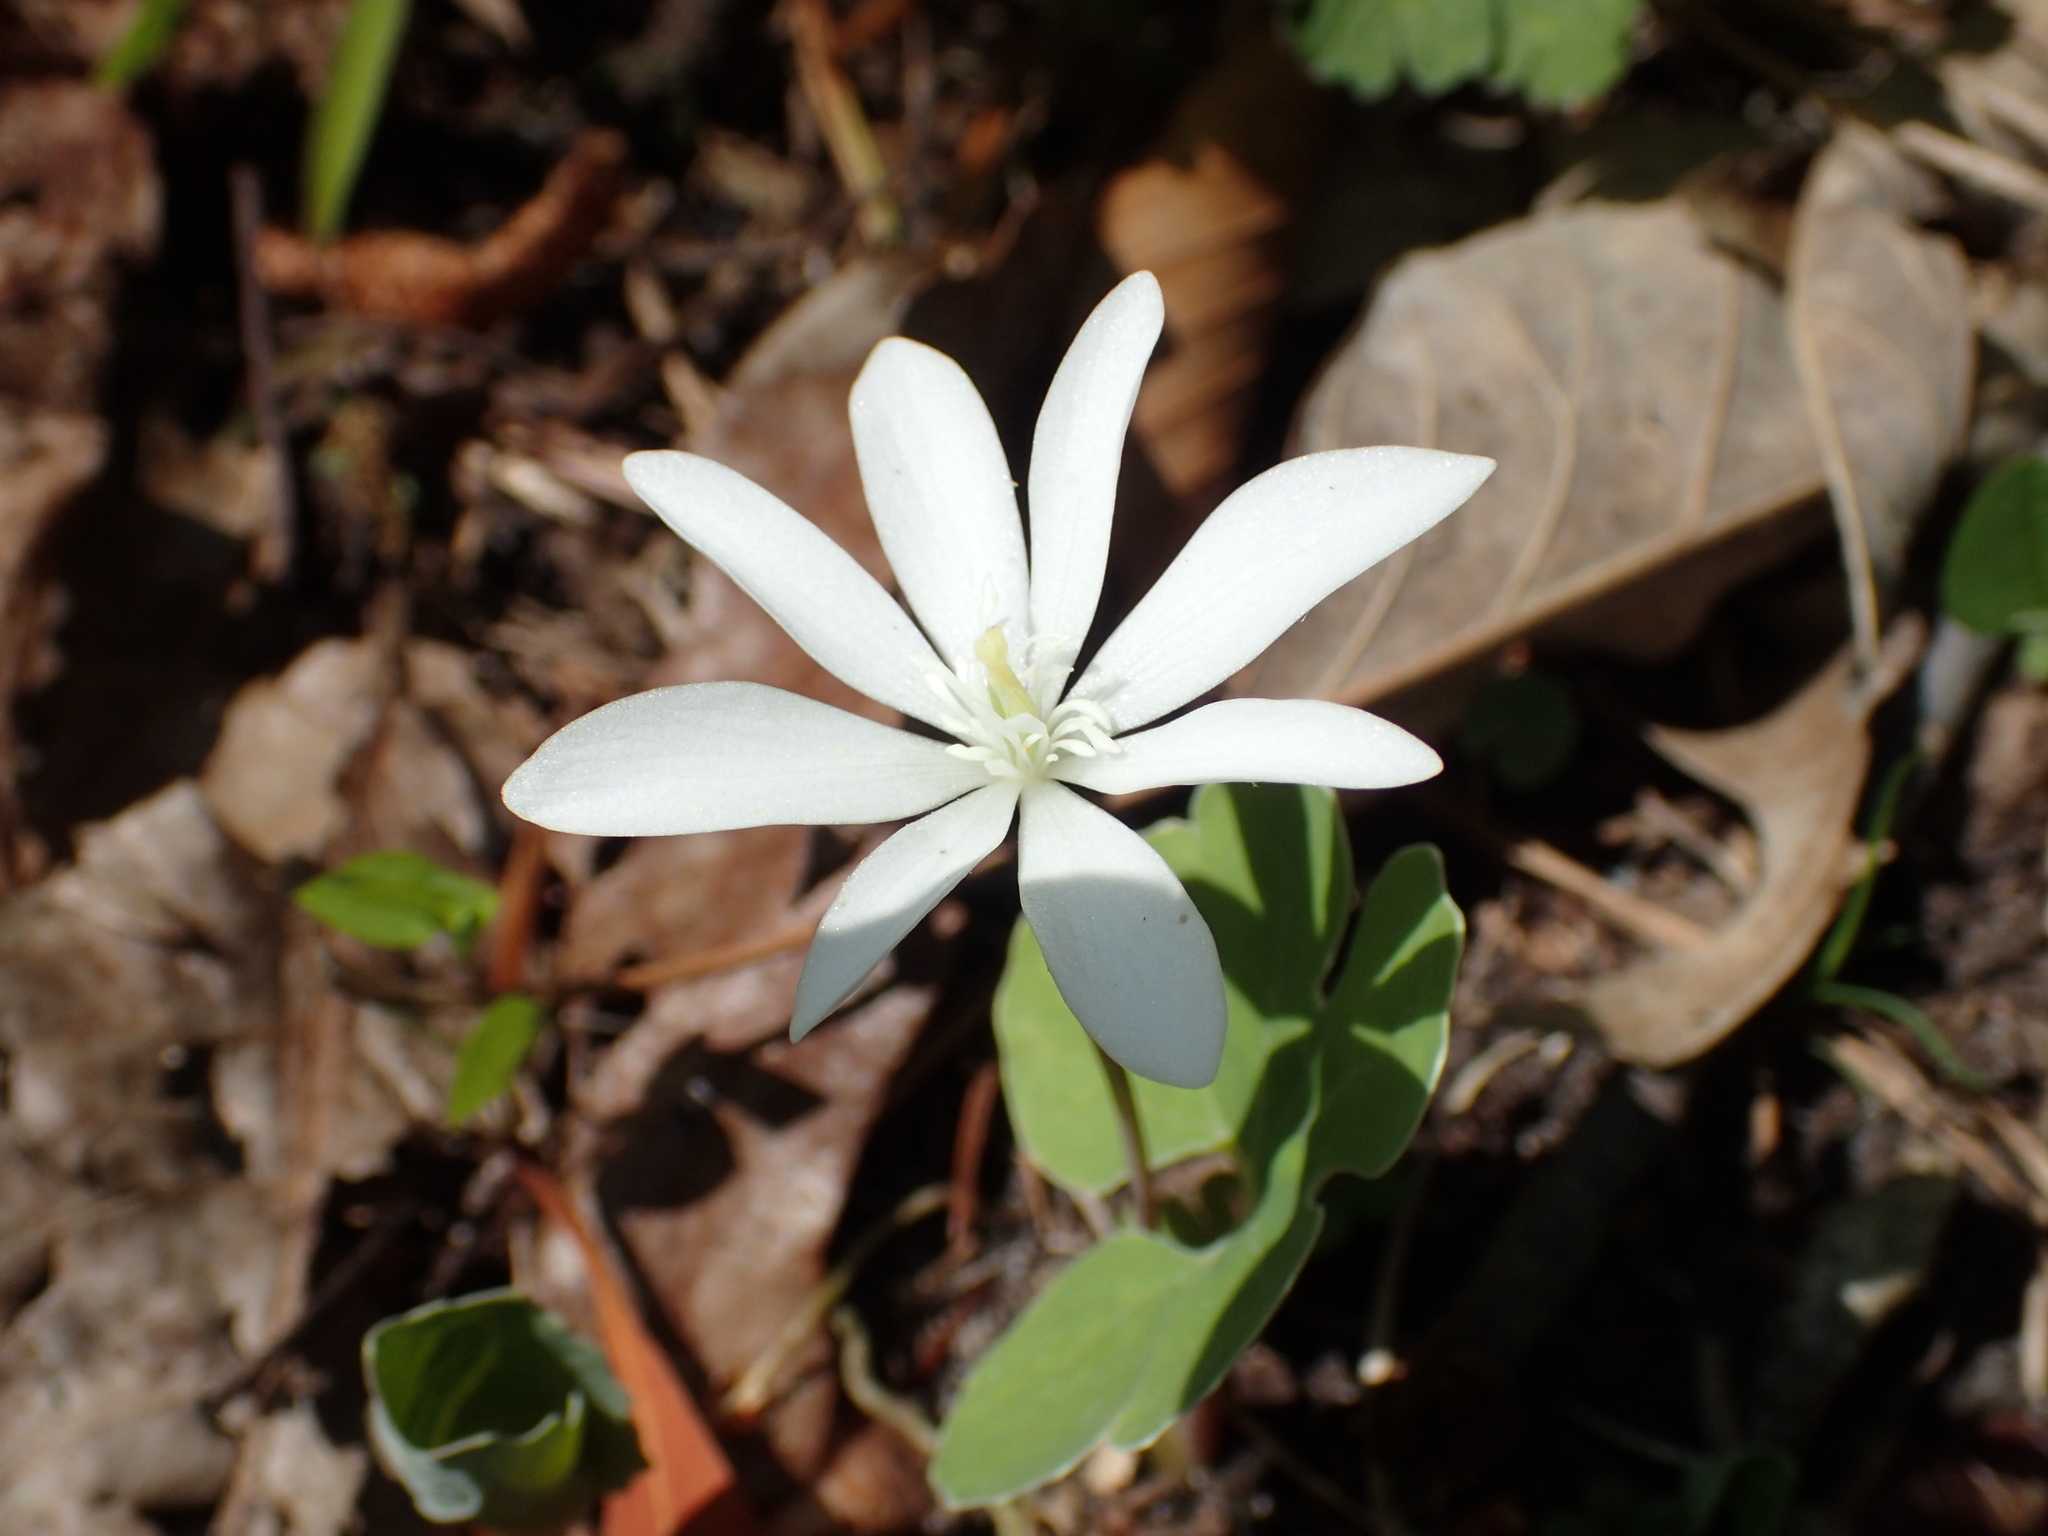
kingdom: Plantae
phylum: Tracheophyta
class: Magnoliopsida
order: Ranunculales
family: Papaveraceae
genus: Sanguinaria
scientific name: Sanguinaria canadensis
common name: Bloodroot
